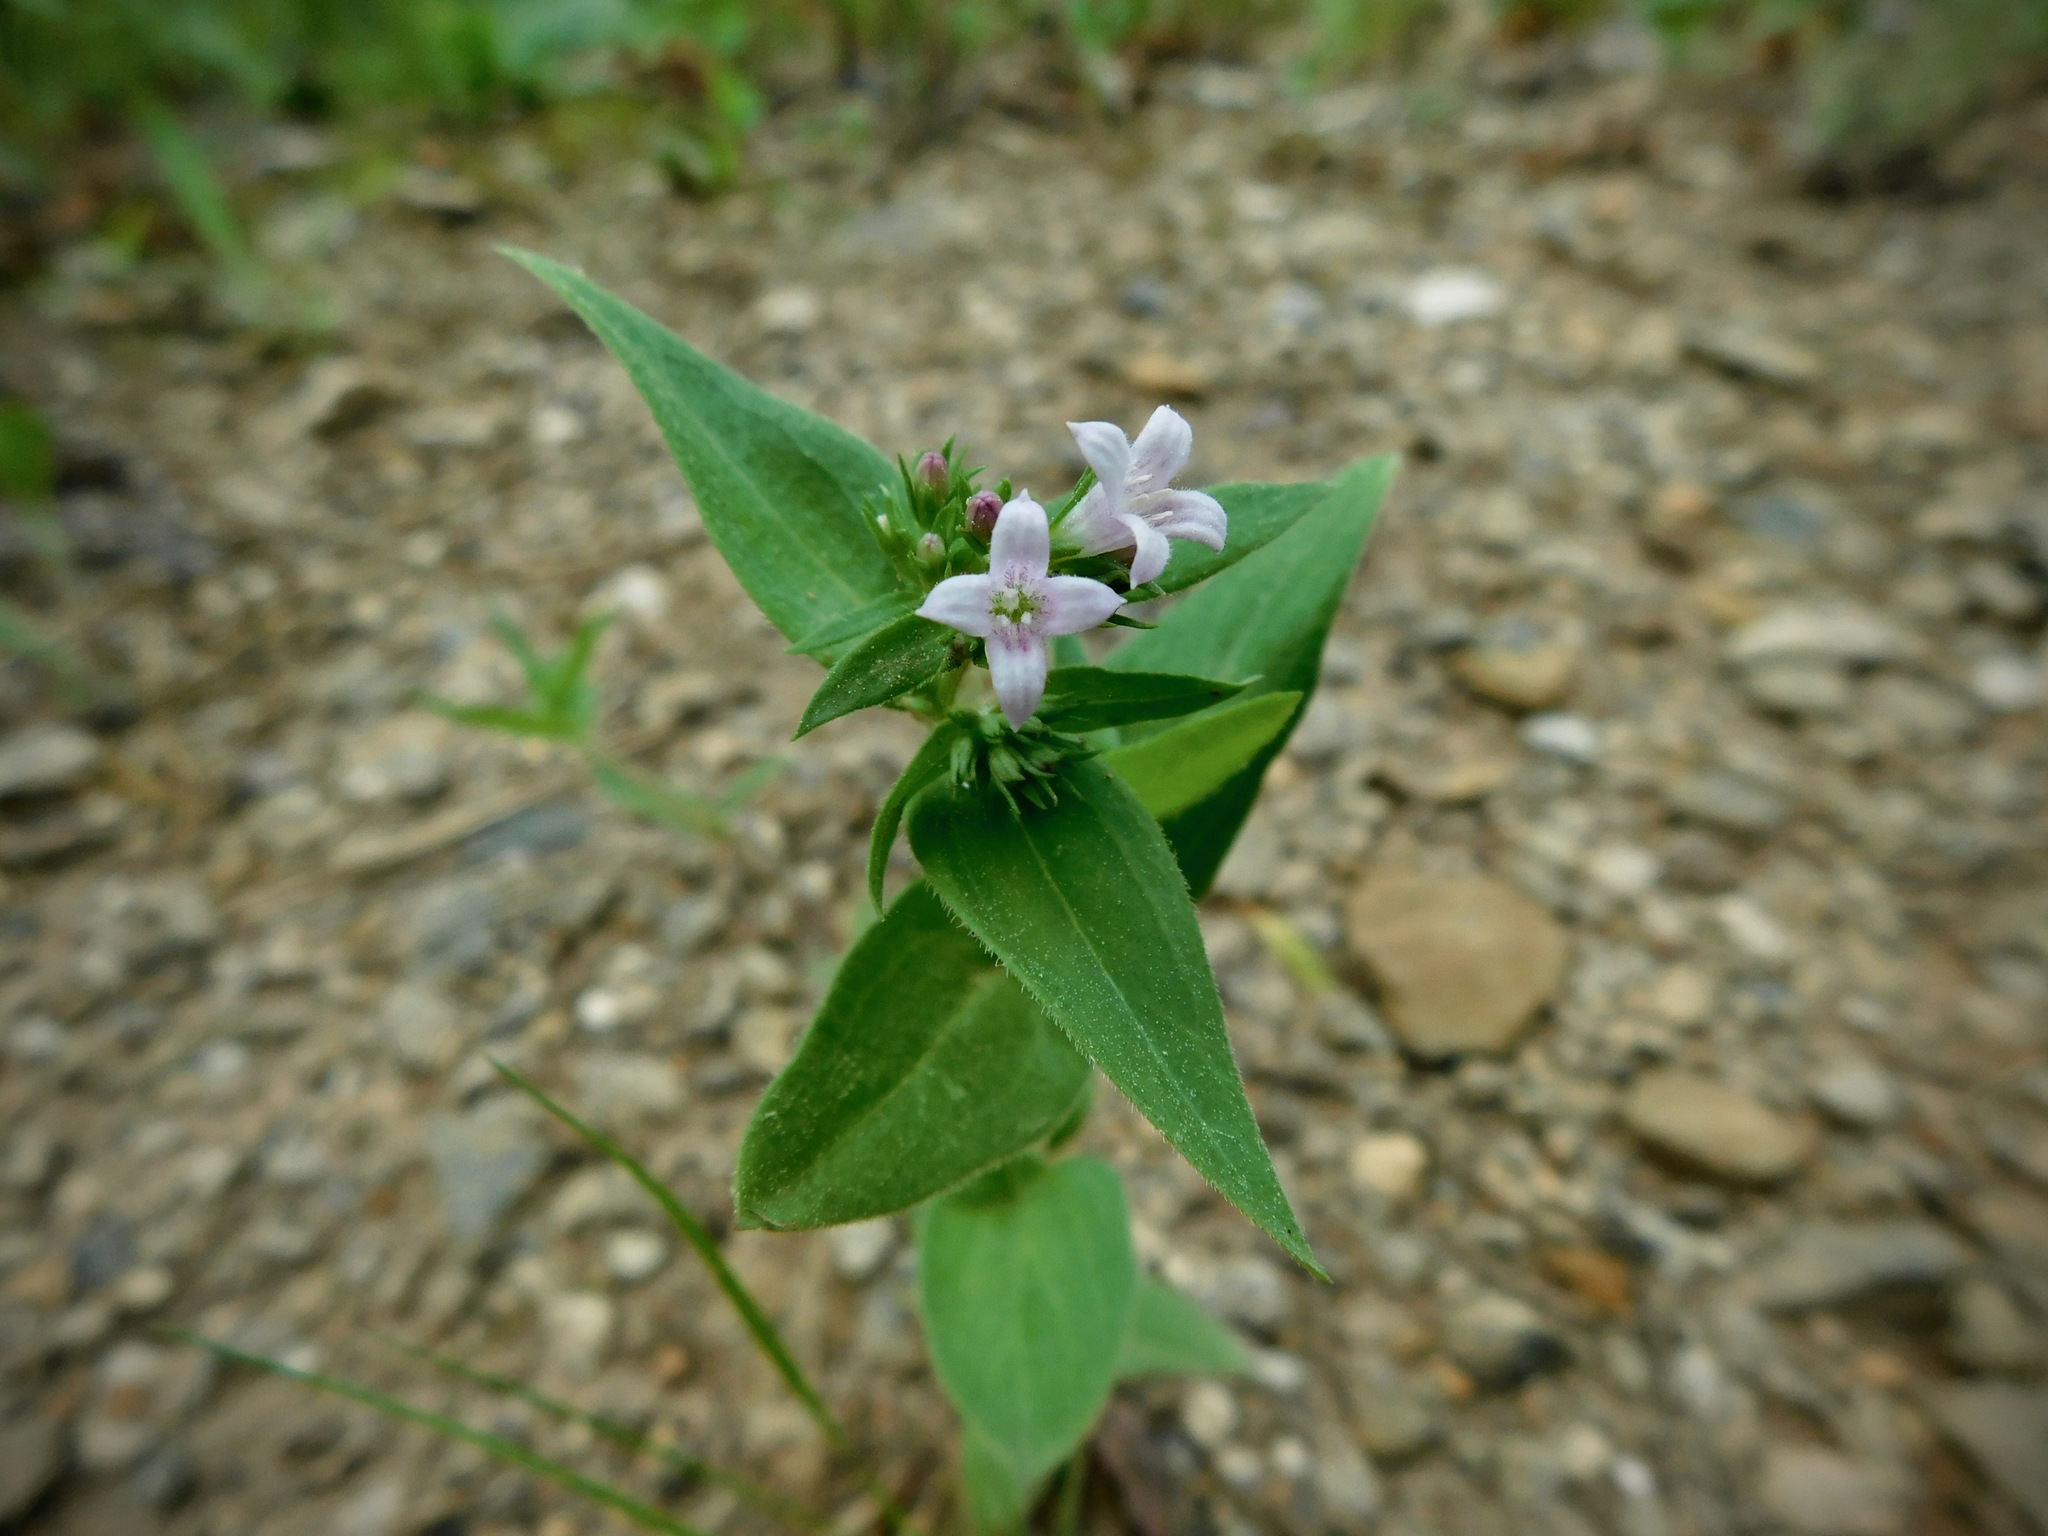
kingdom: Plantae
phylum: Tracheophyta
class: Magnoliopsida
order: Gentianales
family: Rubiaceae
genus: Houstonia
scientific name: Houstonia purpurea
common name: Summer bluet
